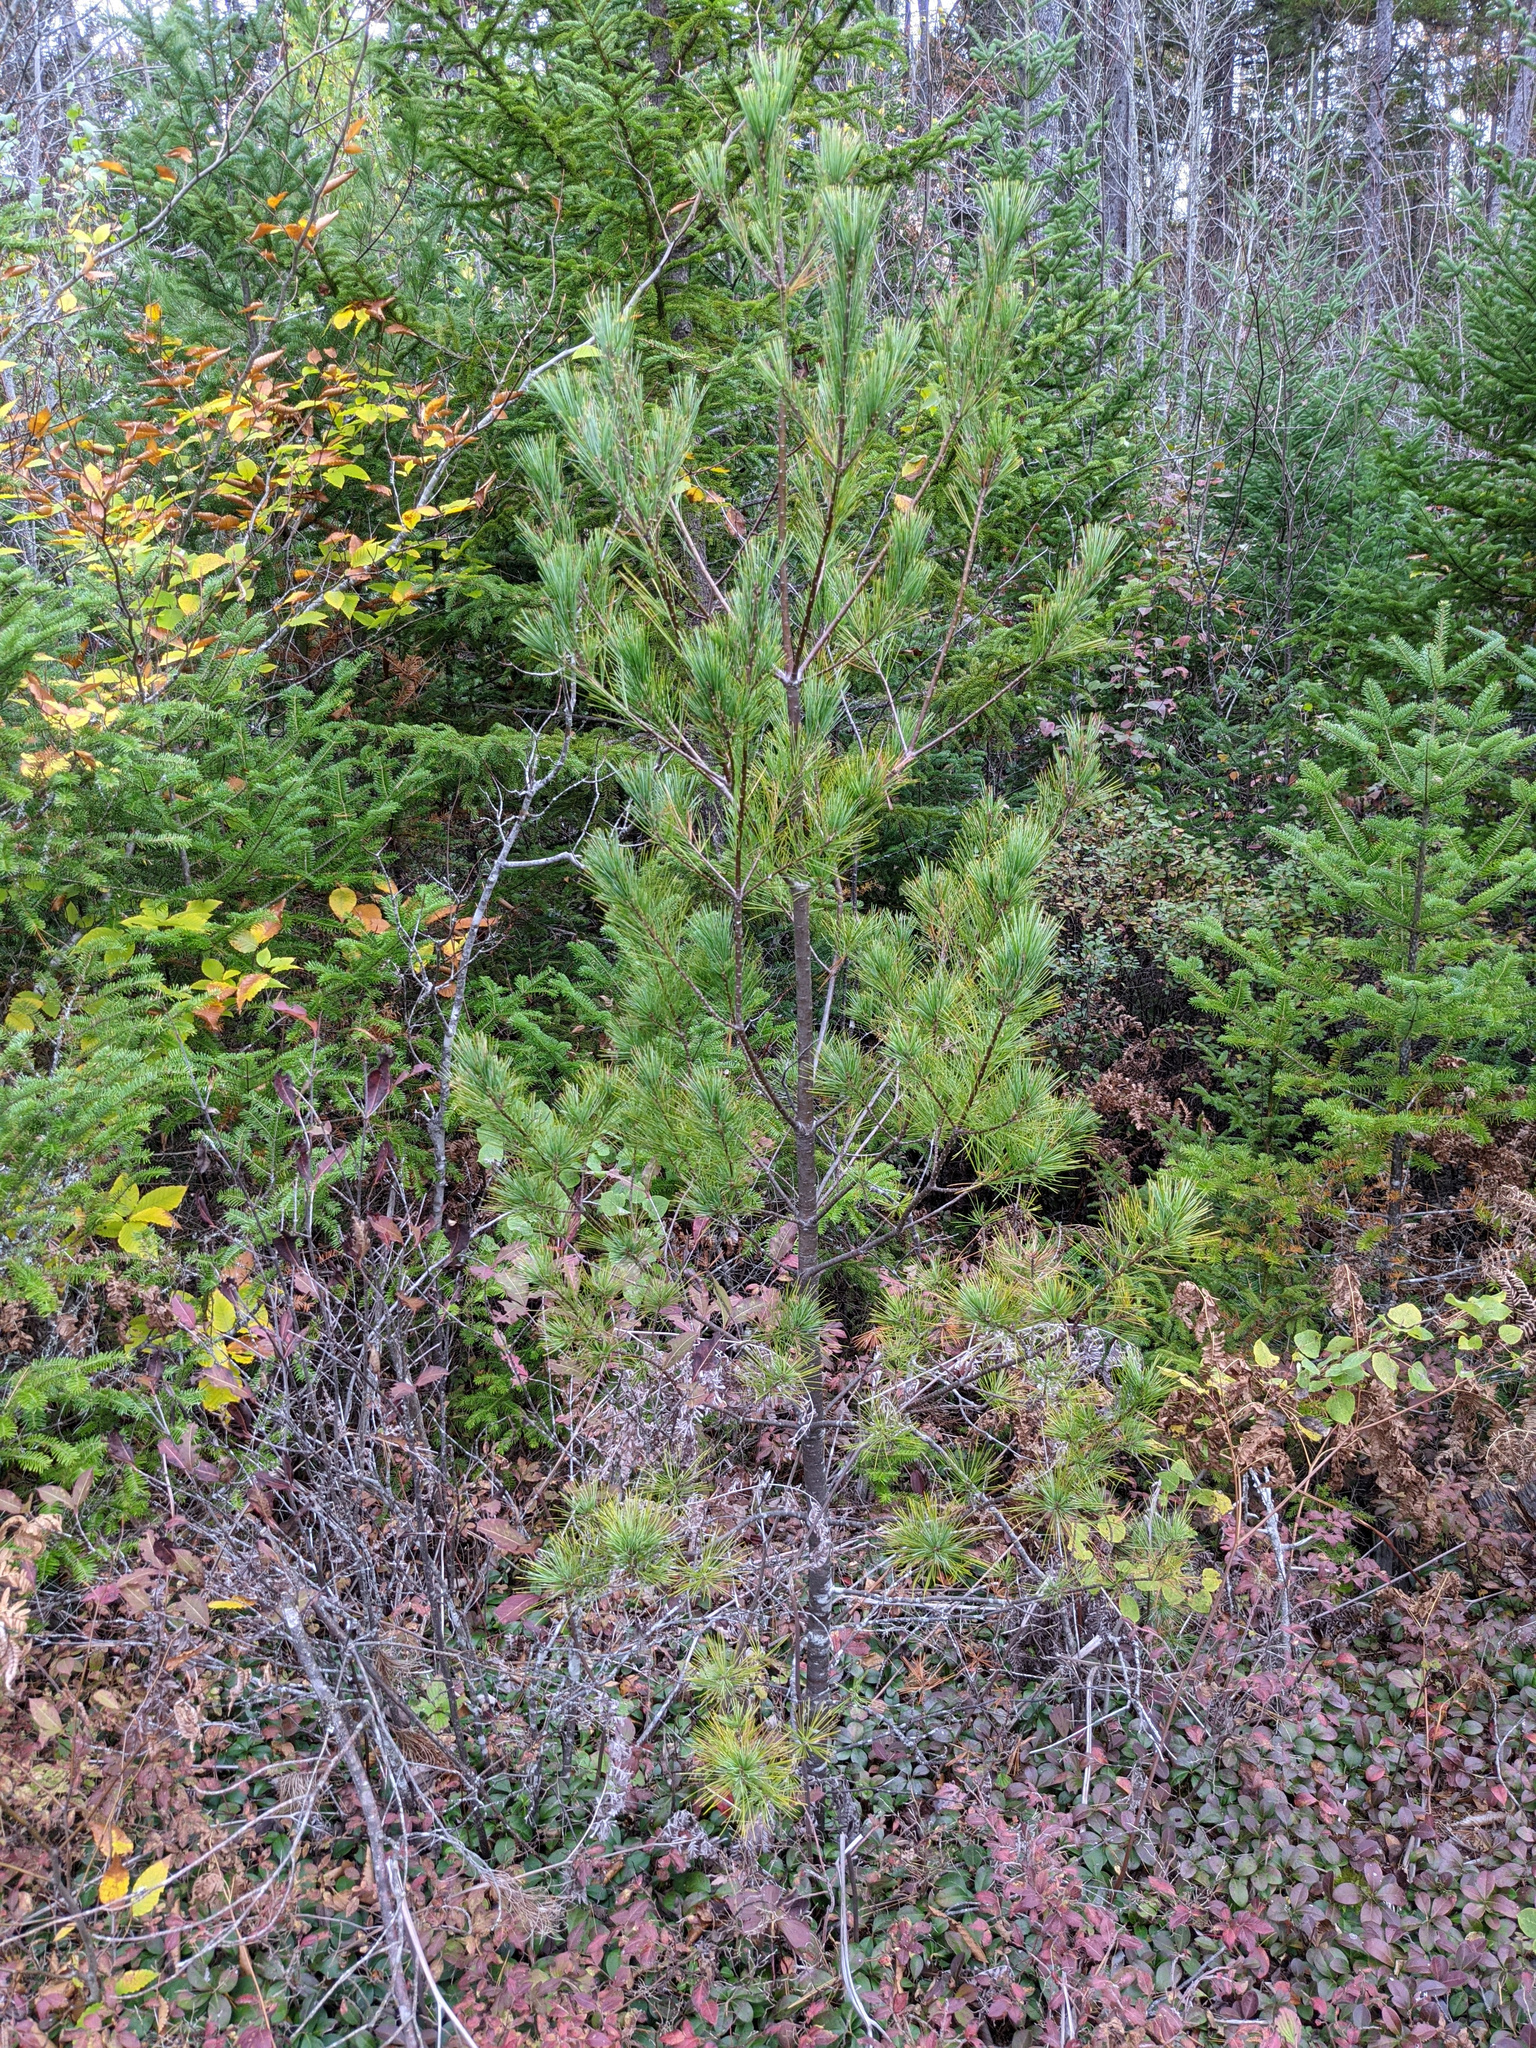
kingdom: Plantae
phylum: Tracheophyta
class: Pinopsida
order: Pinales
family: Pinaceae
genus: Pinus
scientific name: Pinus strobus
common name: Weymouth pine
